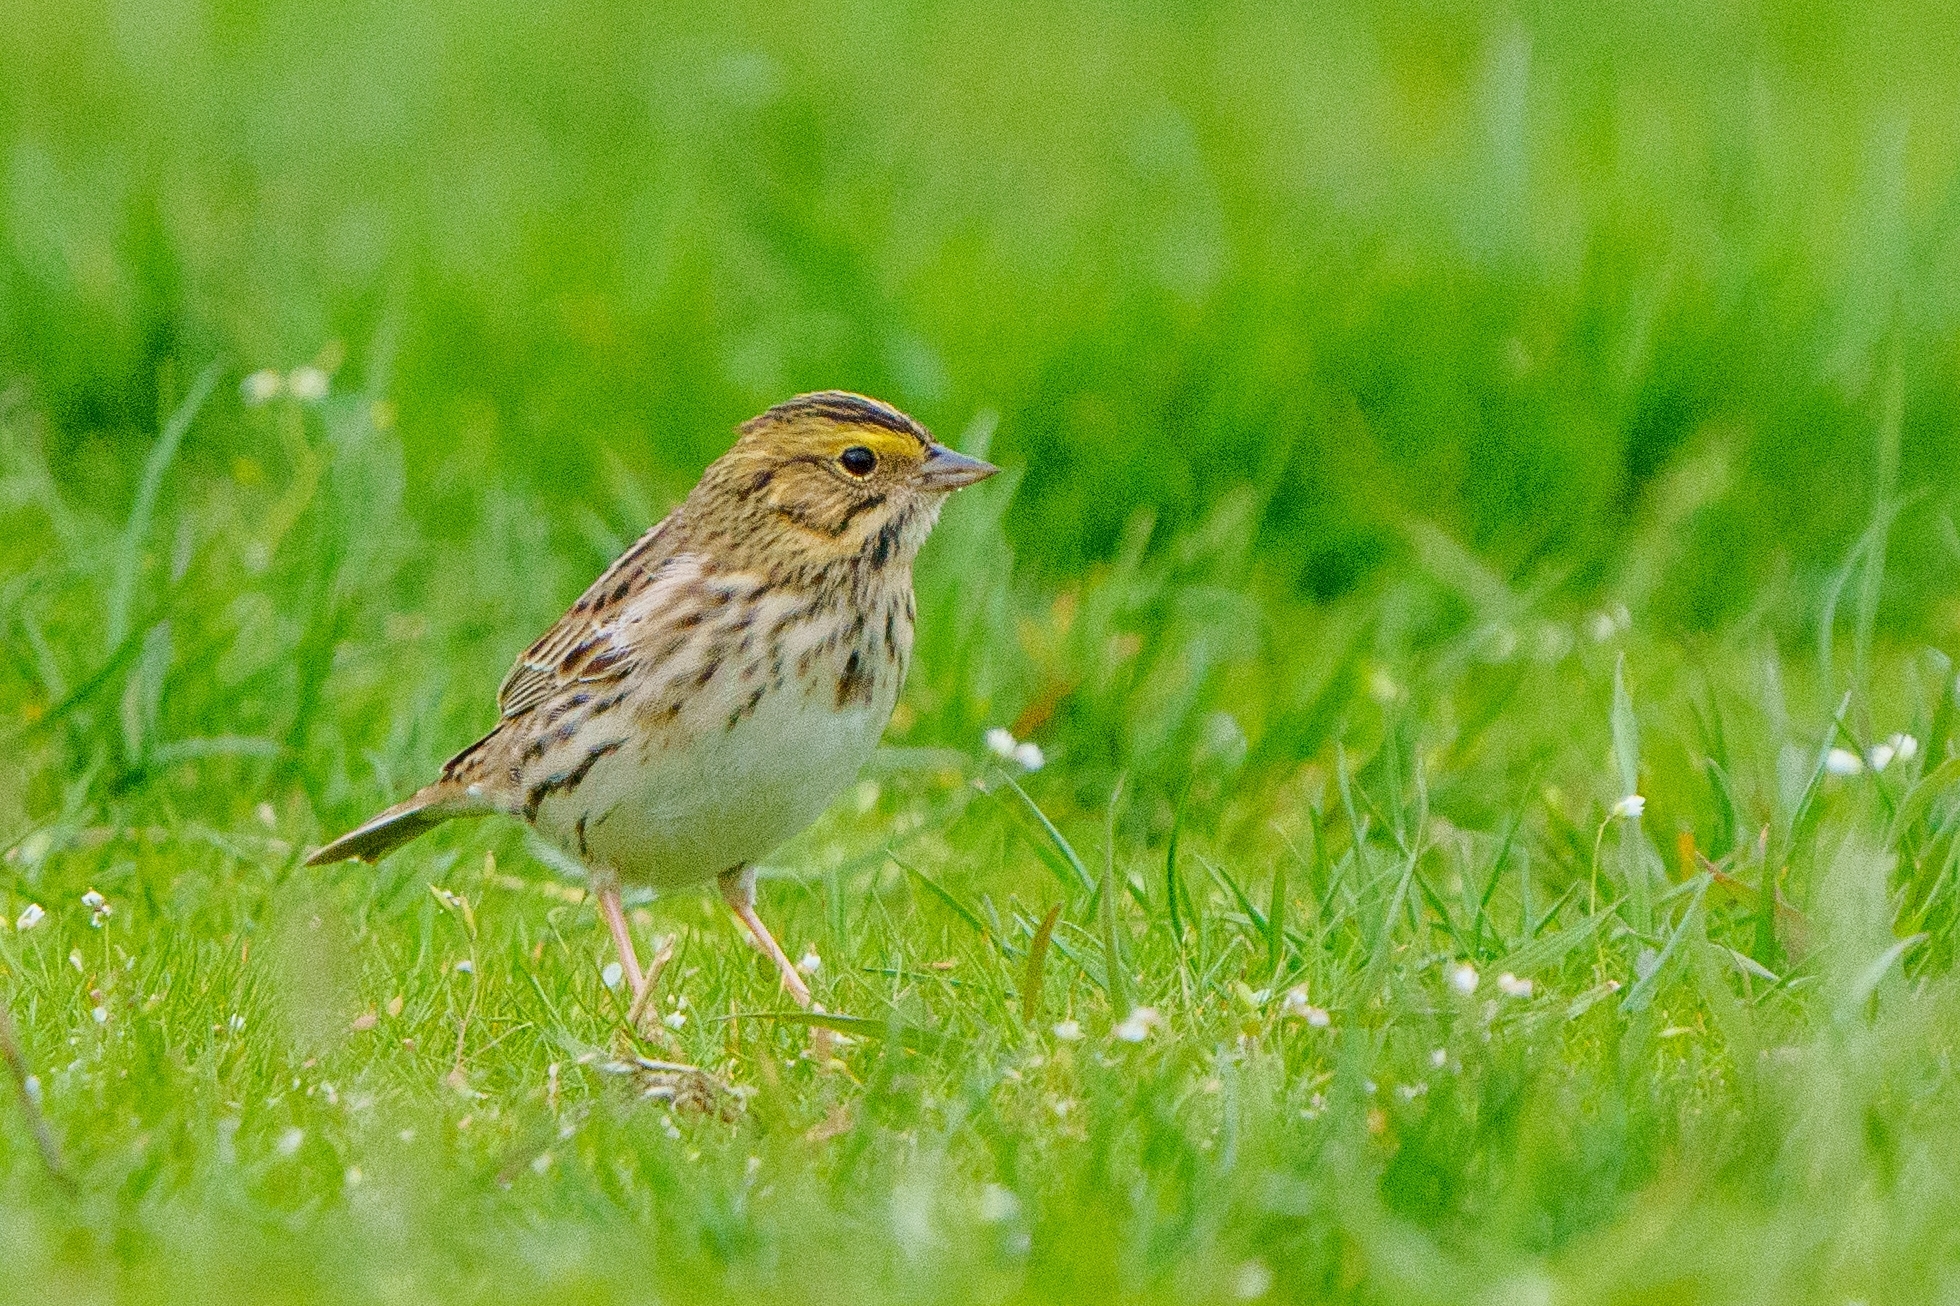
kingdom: Animalia
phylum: Chordata
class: Aves
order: Passeriformes
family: Passerellidae
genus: Passerculus
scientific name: Passerculus sandwichensis
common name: Savannah sparrow
